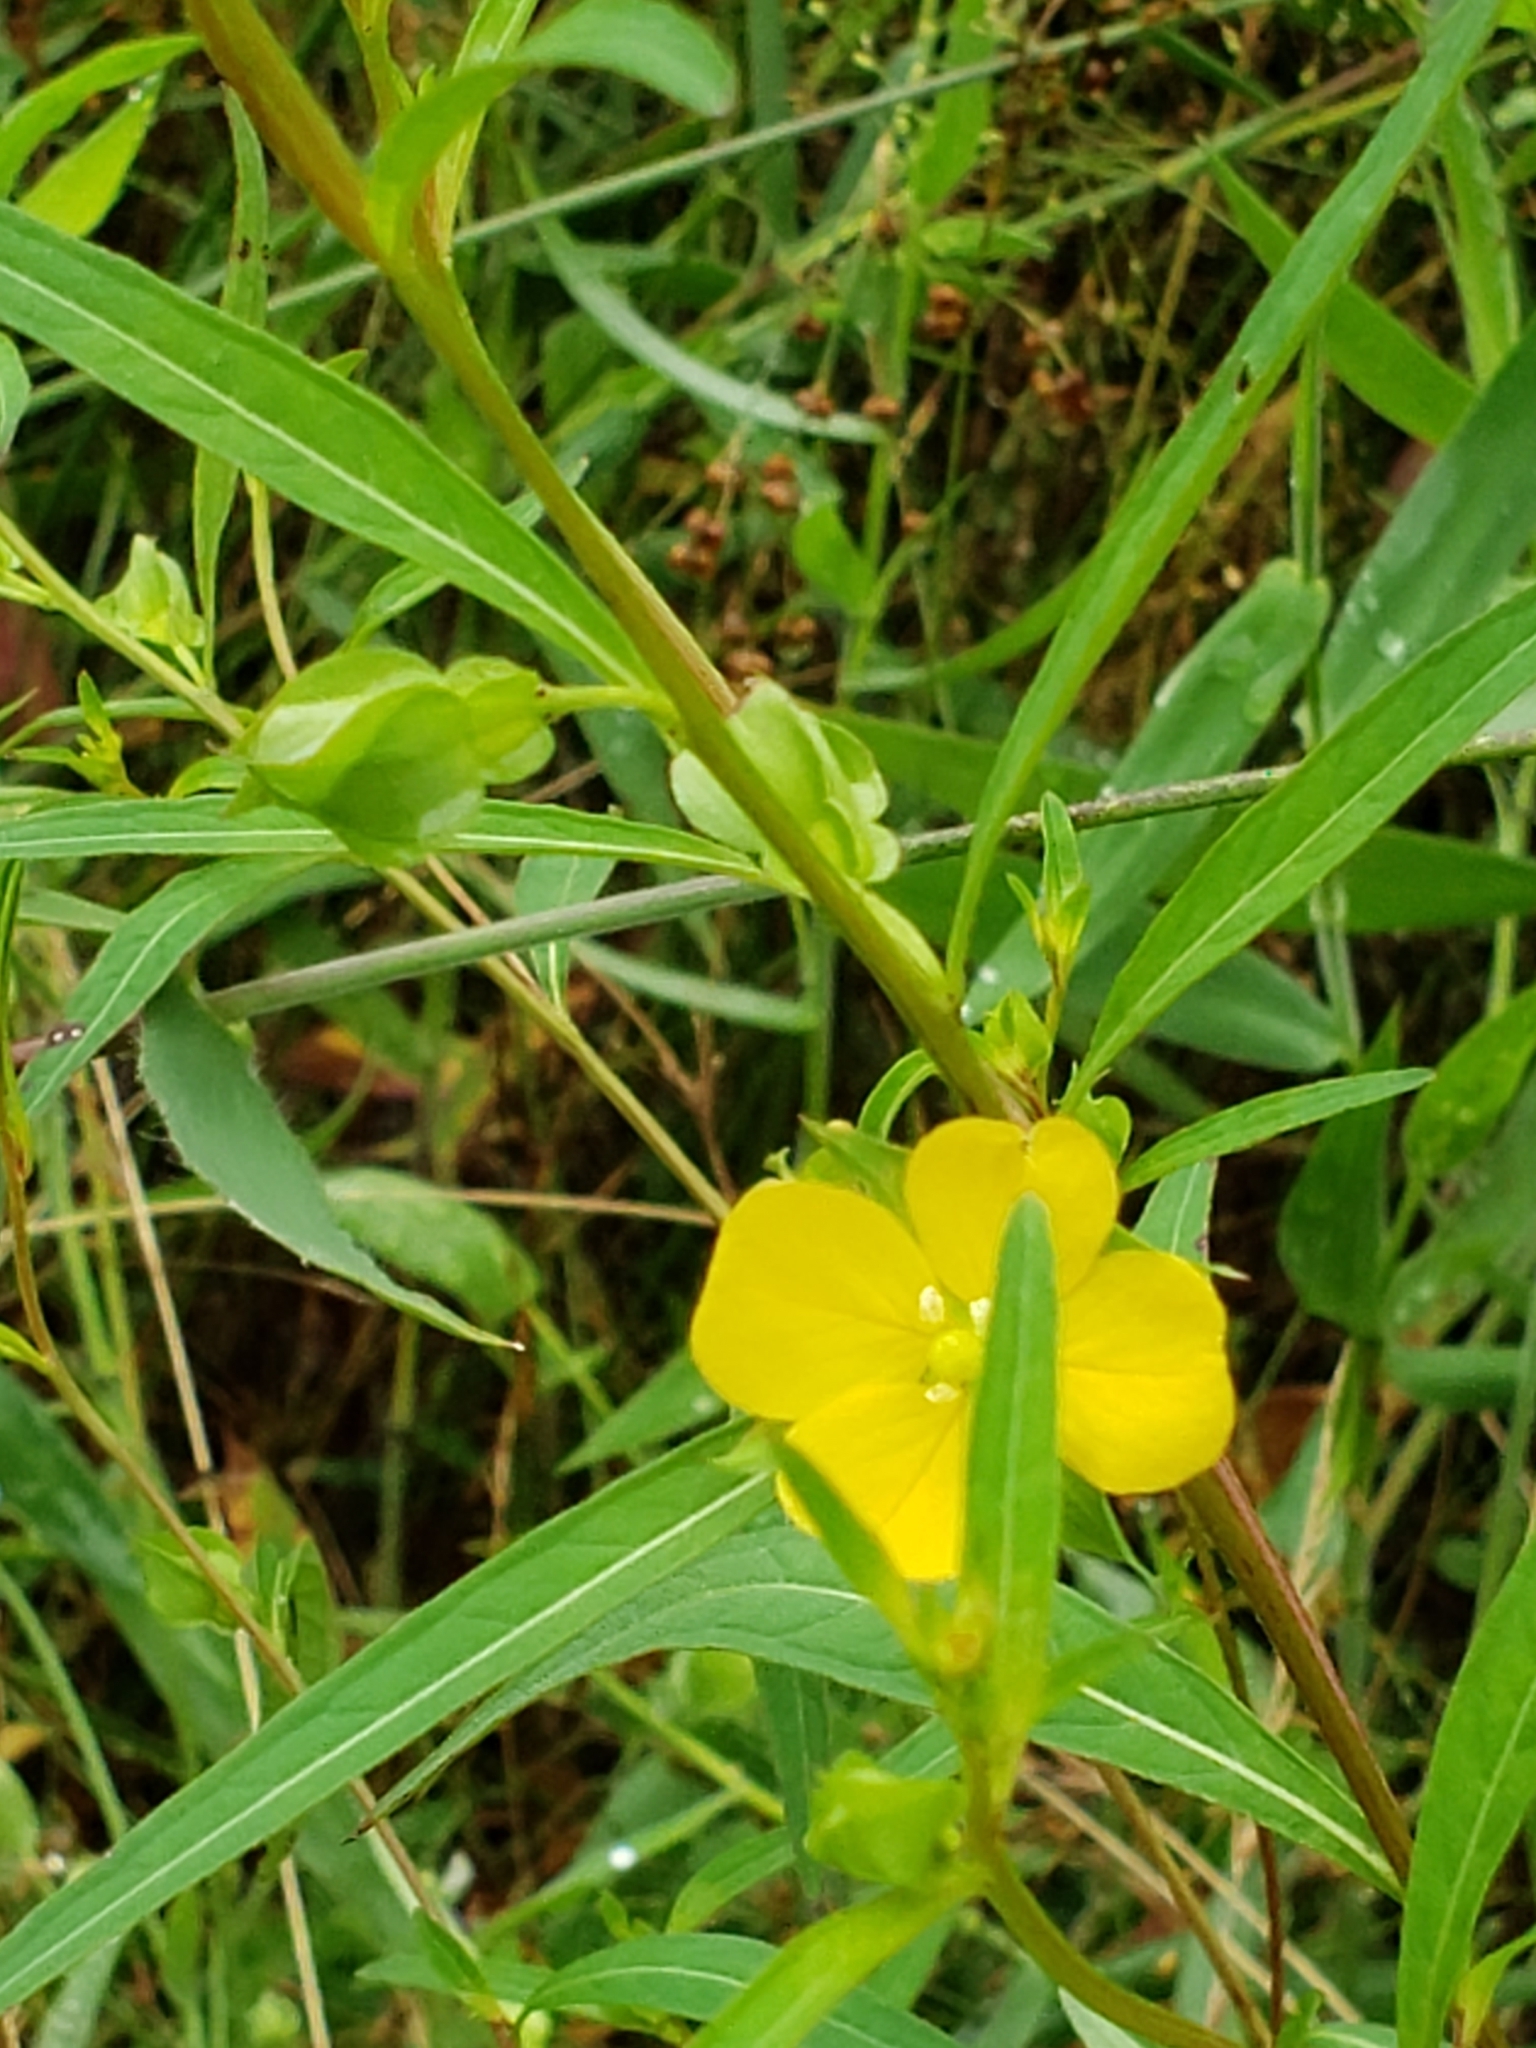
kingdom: Plantae
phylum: Tracheophyta
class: Magnoliopsida
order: Myrtales
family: Onagraceae
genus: Ludwigia
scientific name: Ludwigia alternifolia
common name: Rattlebox
